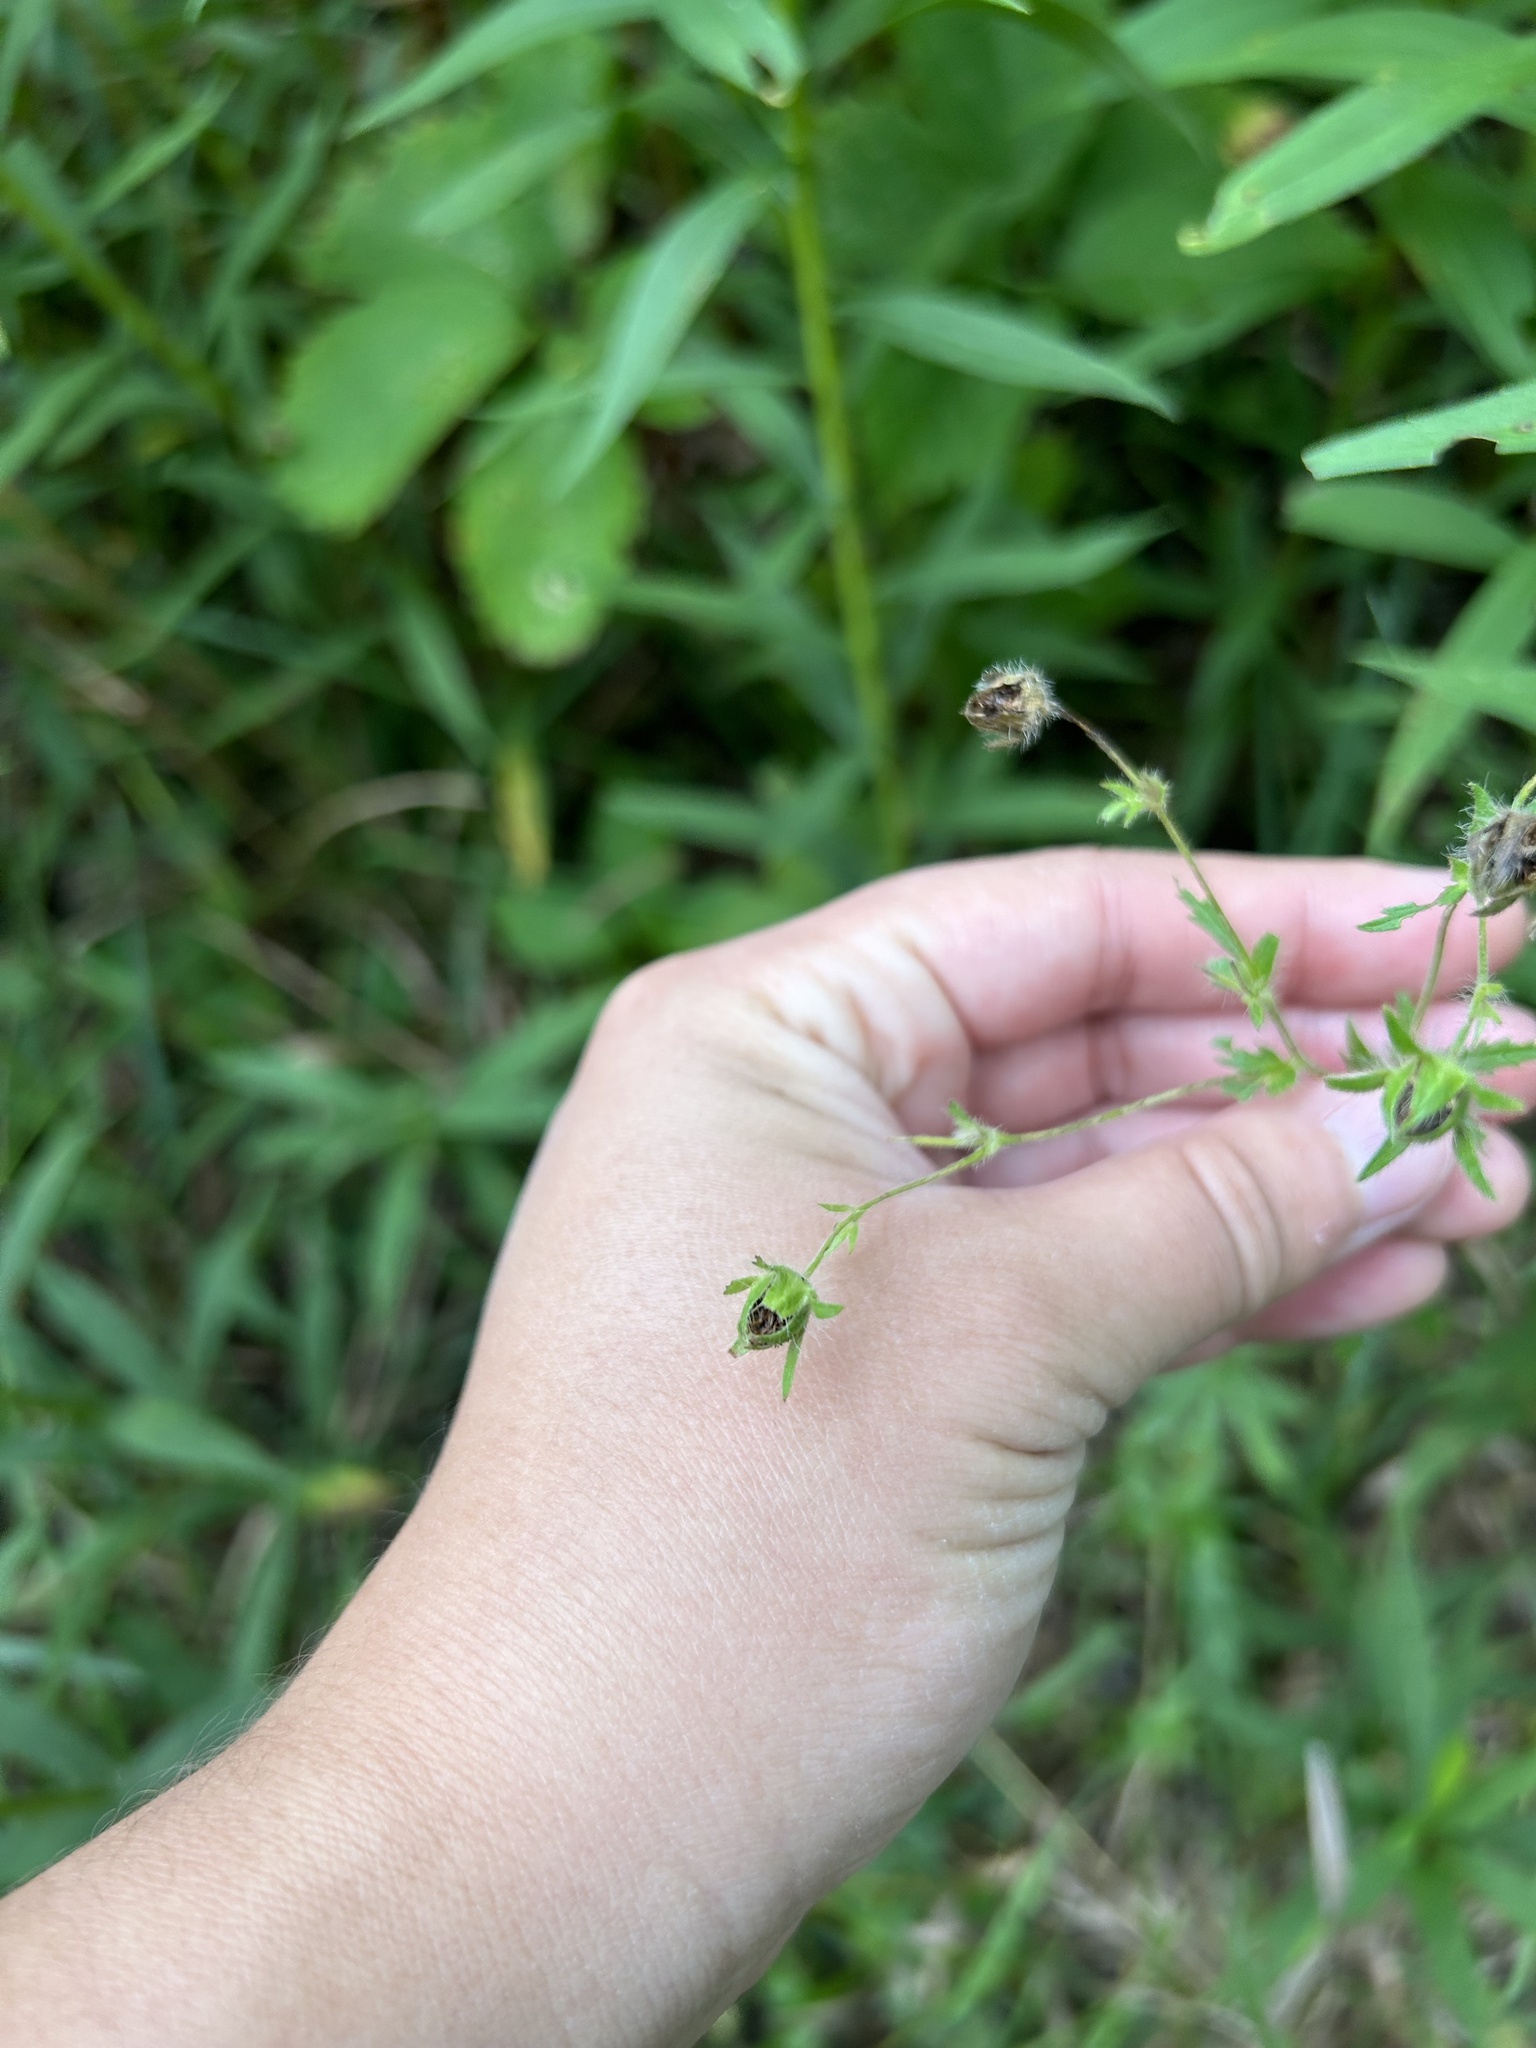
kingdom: Plantae
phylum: Tracheophyta
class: Magnoliopsida
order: Rosales
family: Rosaceae
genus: Potentilla
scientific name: Potentilla recta
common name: Sulphur cinquefoil
